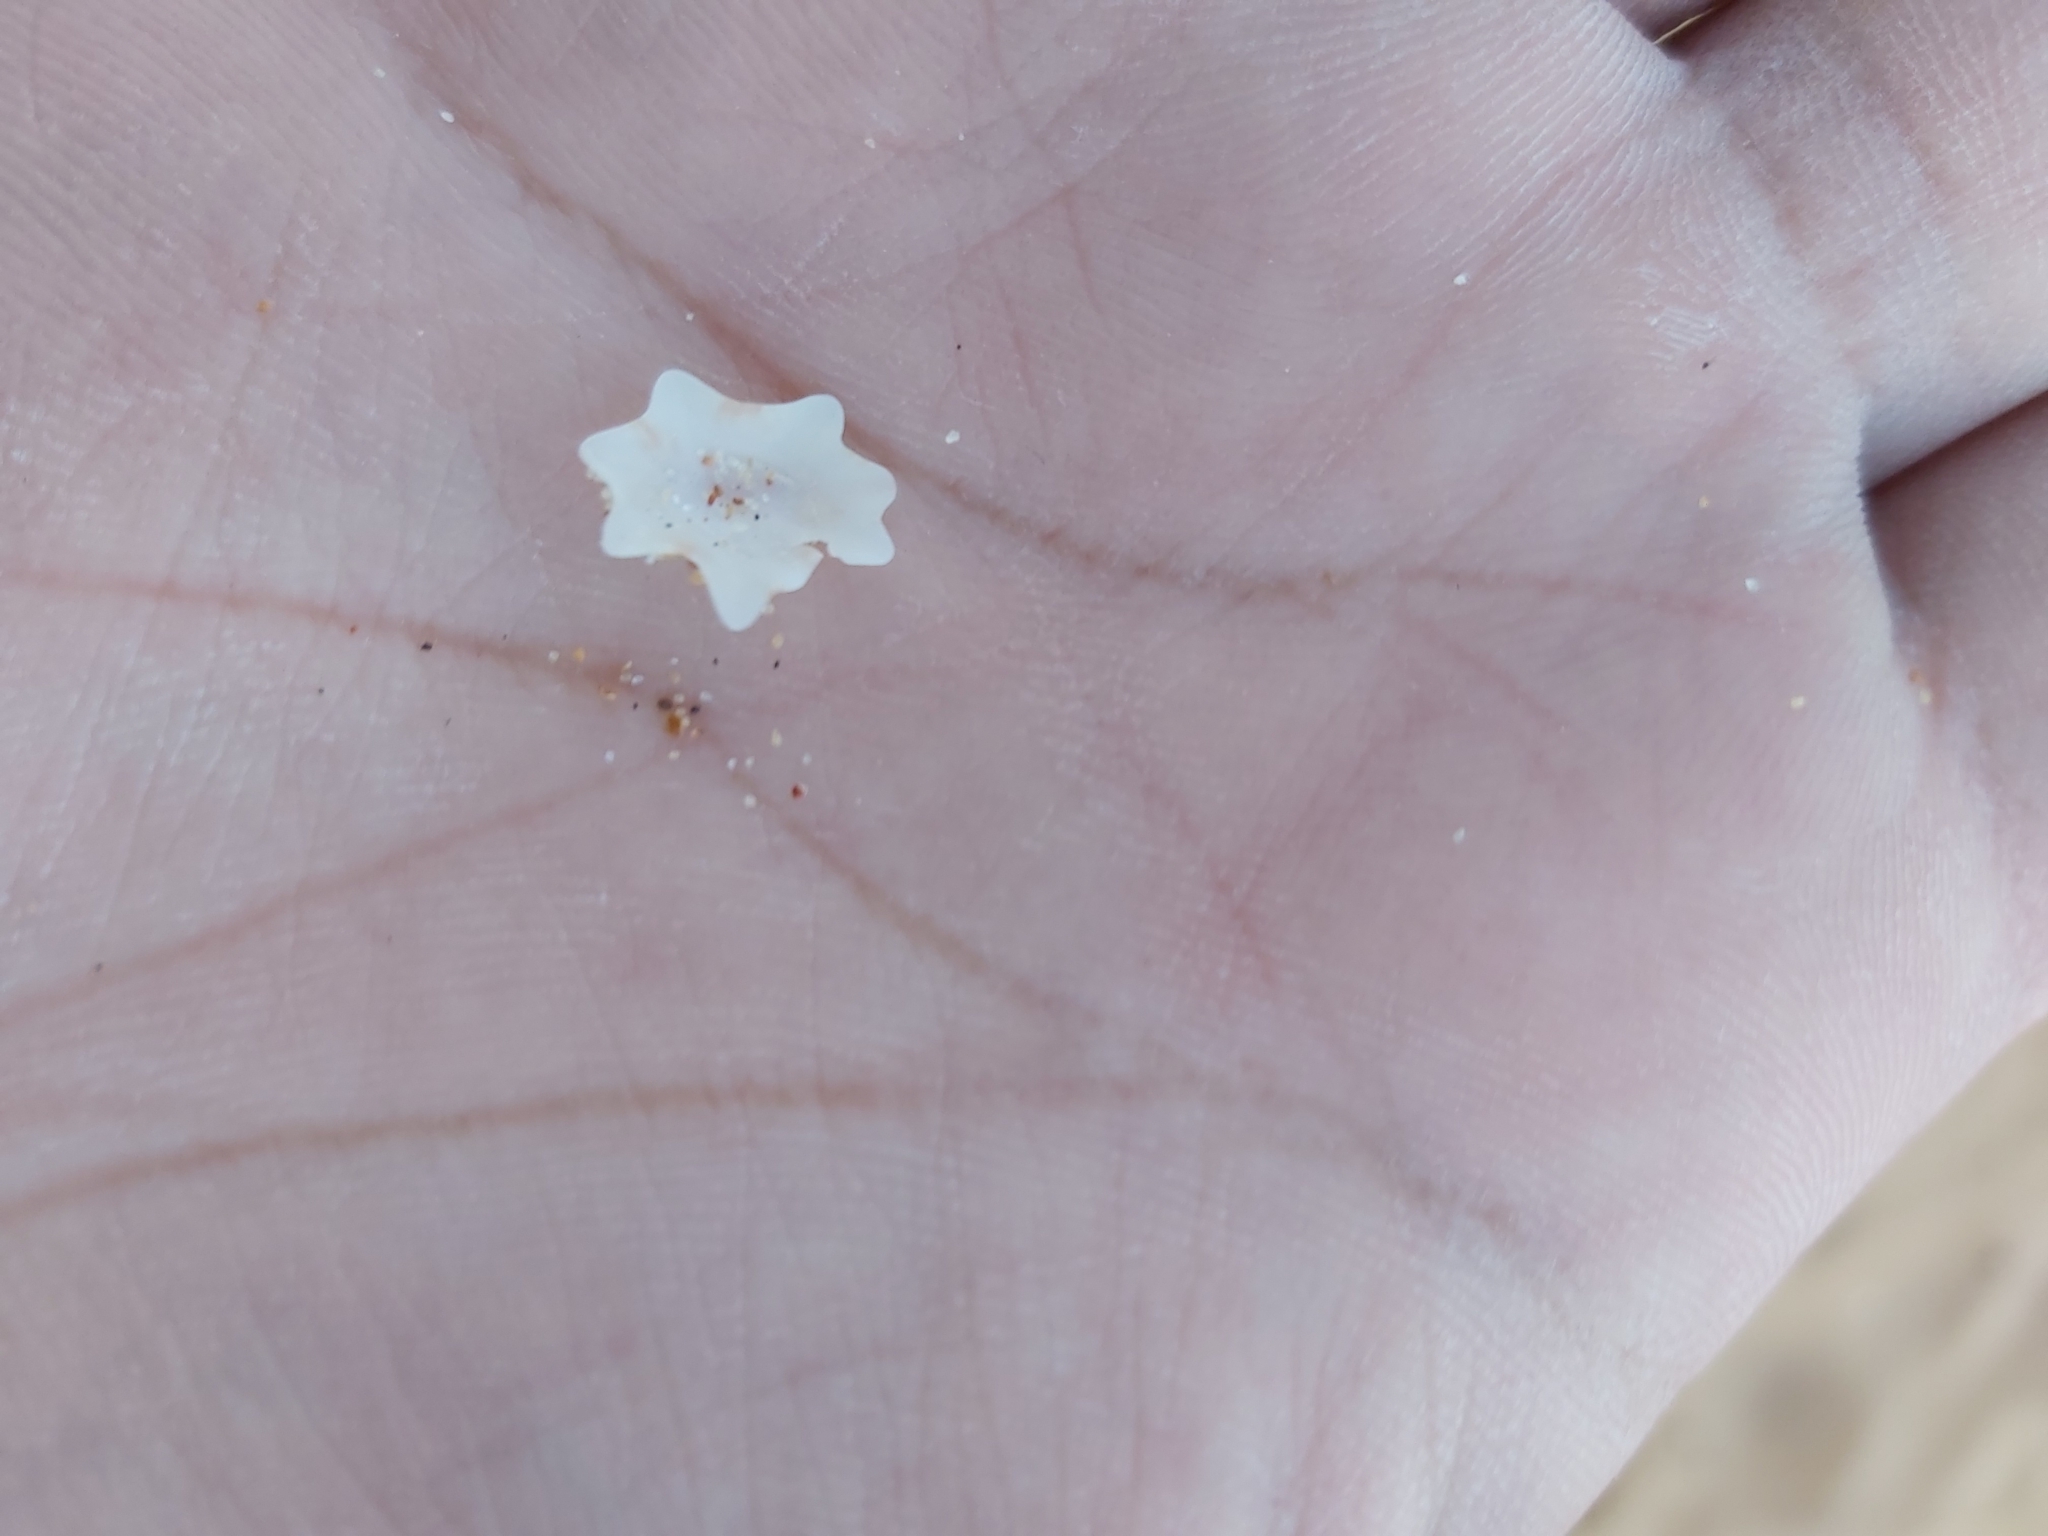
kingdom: Animalia
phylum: Mollusca
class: Gastropoda
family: Patellidae
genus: Scutellastra
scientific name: Scutellastra chapmani
